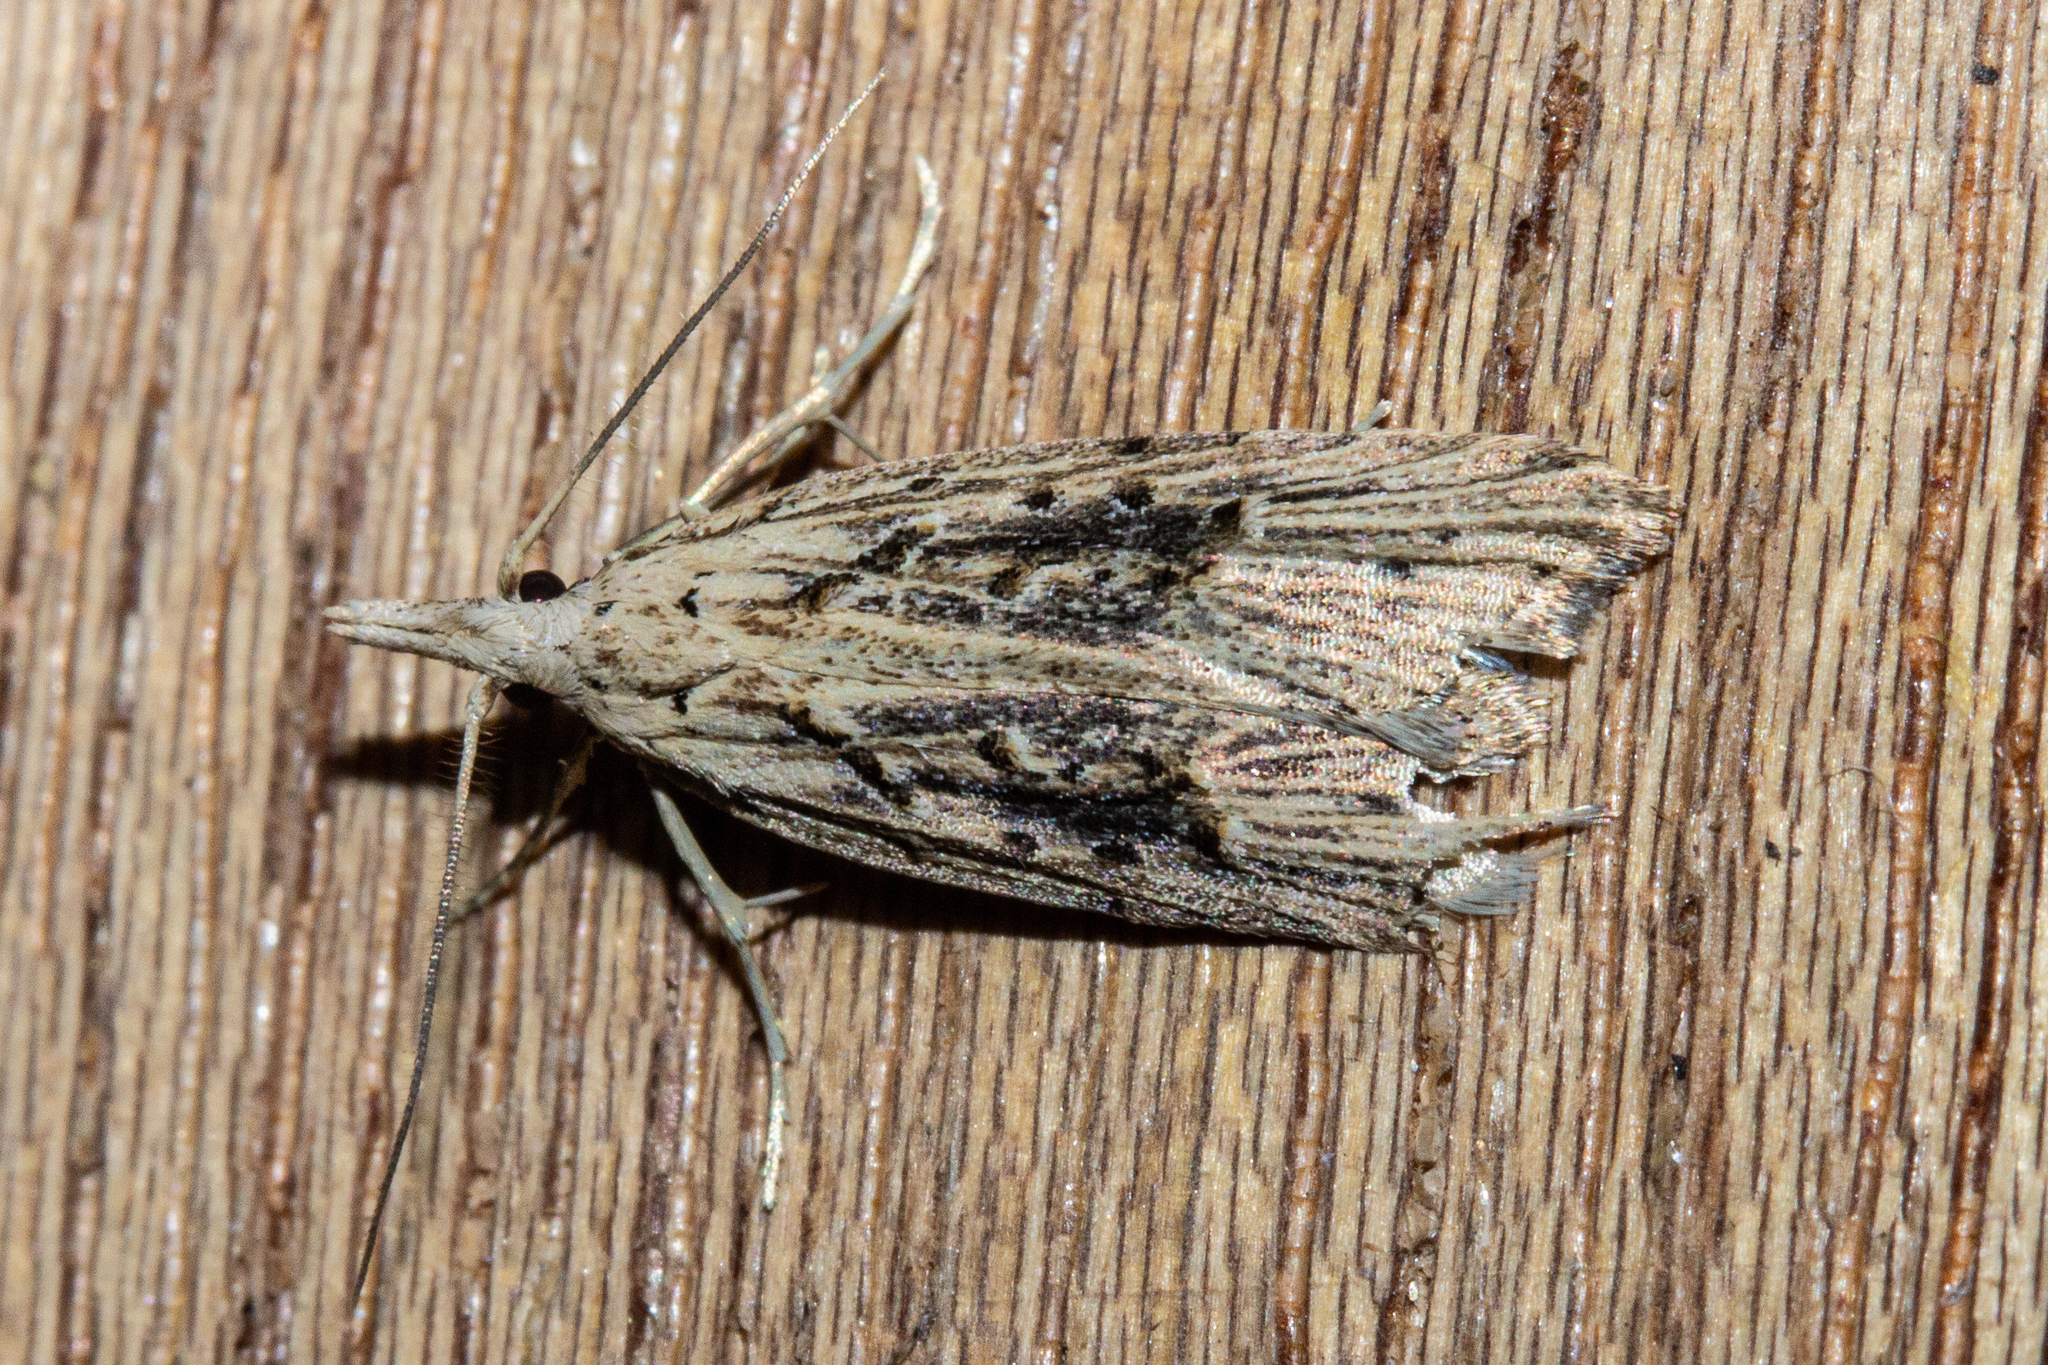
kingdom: Animalia
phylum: Arthropoda
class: Insecta
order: Lepidoptera
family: Carposinidae
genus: Carposina
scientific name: Carposina Heterocrossa exochana
